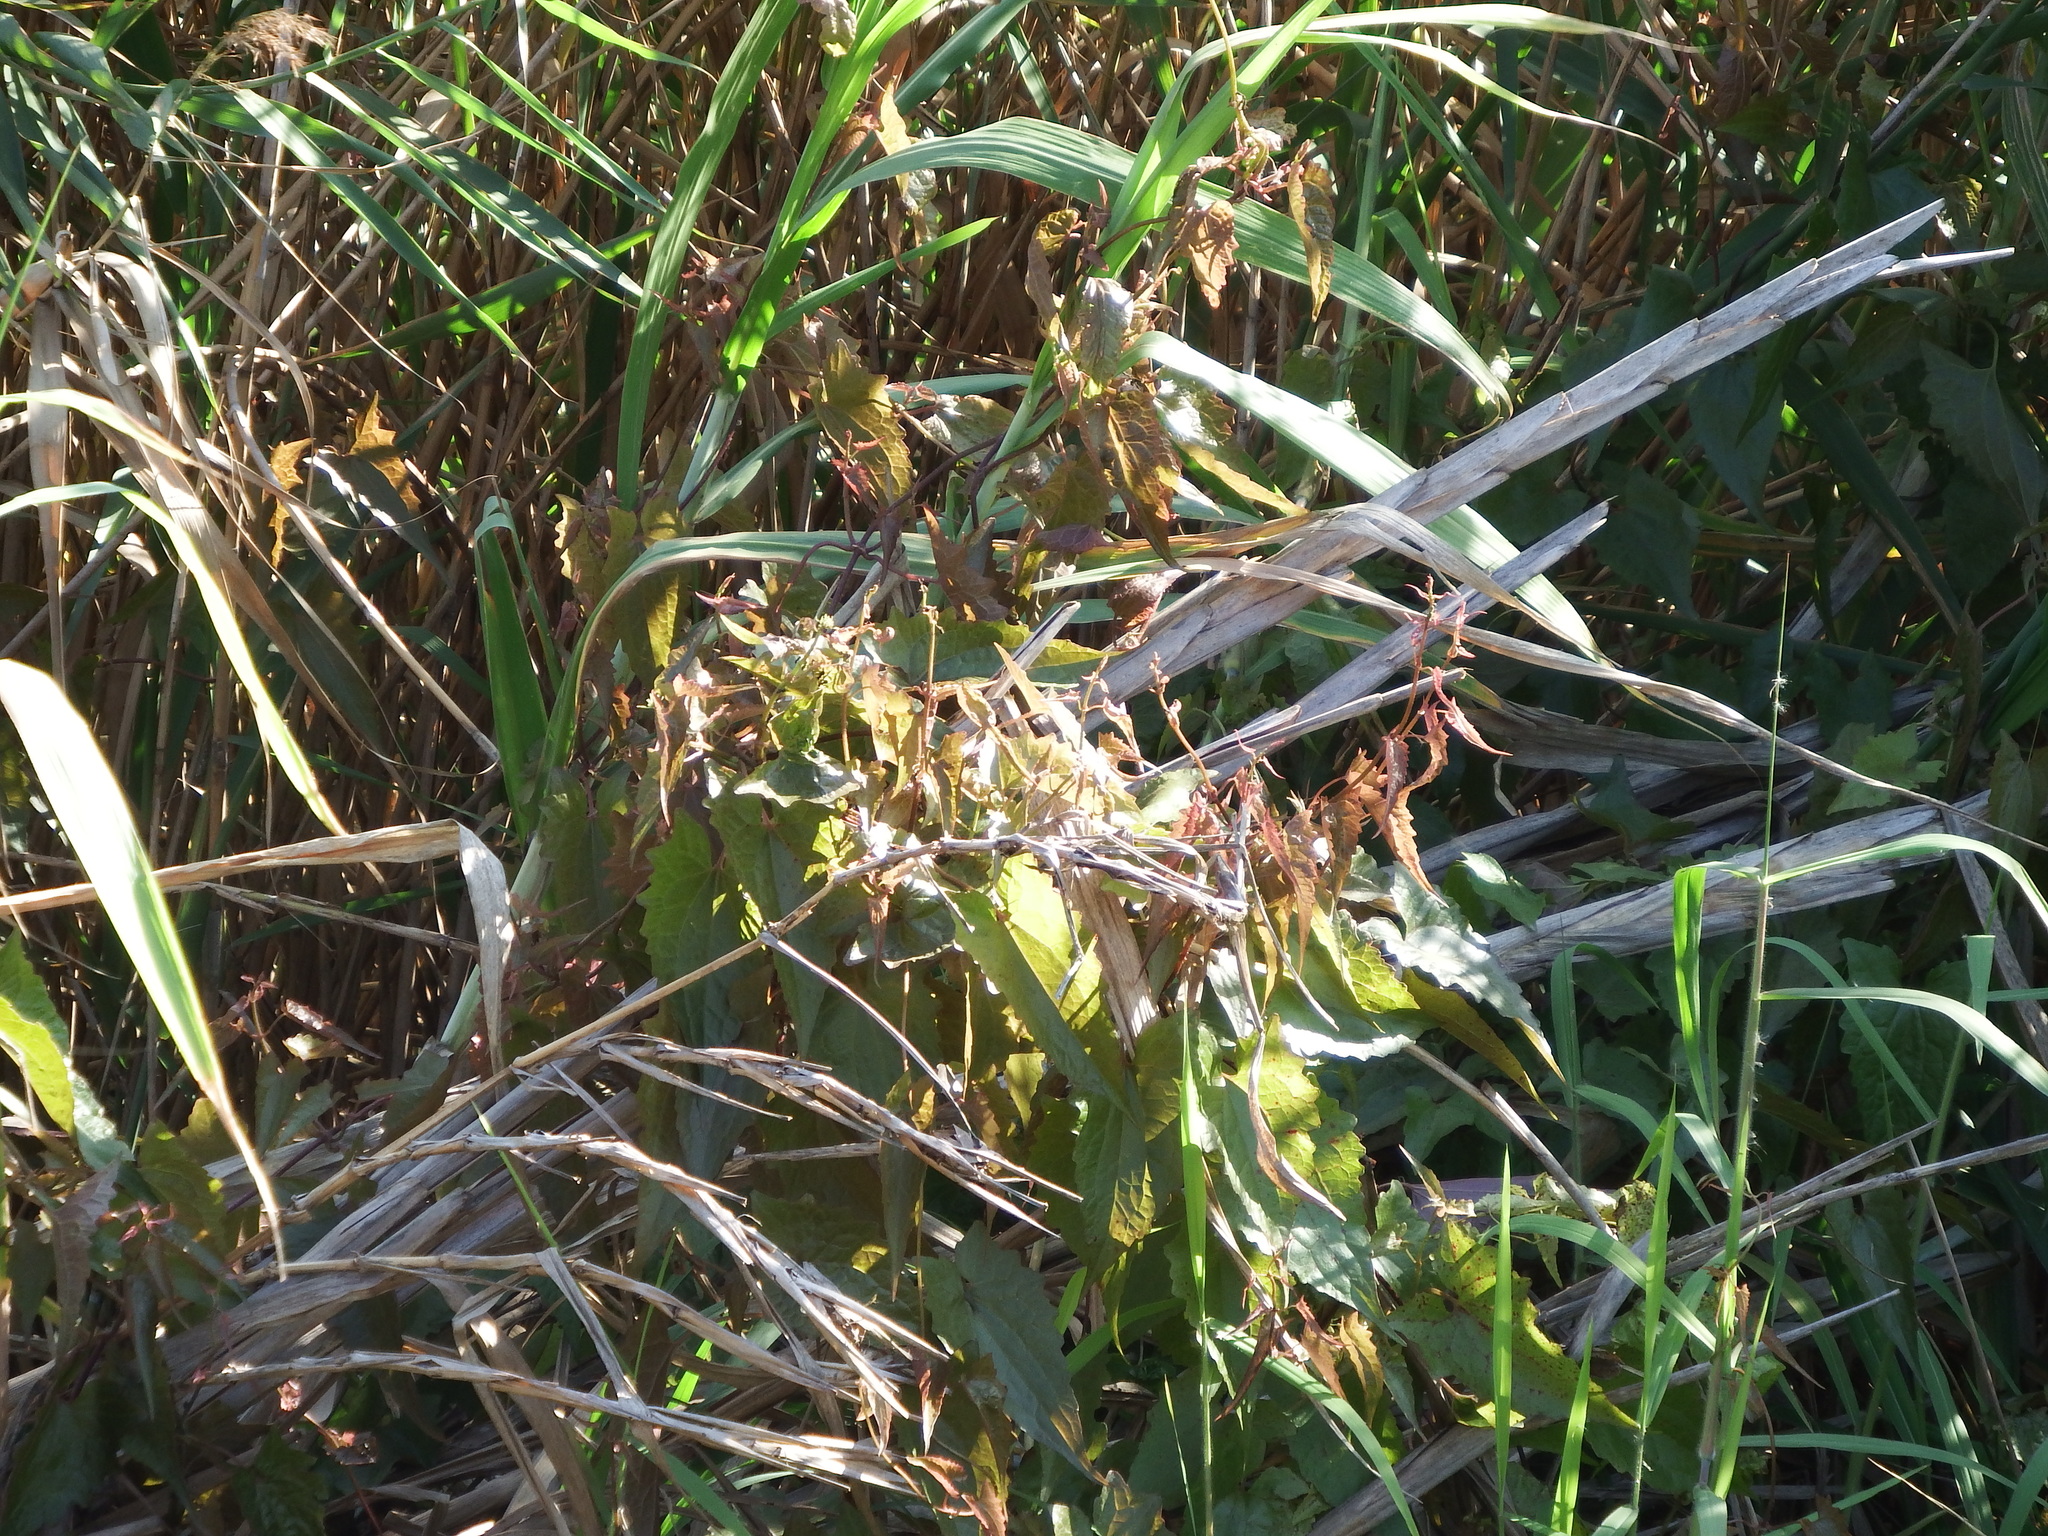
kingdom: Plantae
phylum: Tracheophyta
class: Magnoliopsida
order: Asterales
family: Asteraceae
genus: Mikania
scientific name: Mikania micrantha
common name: Mile-a-minute
